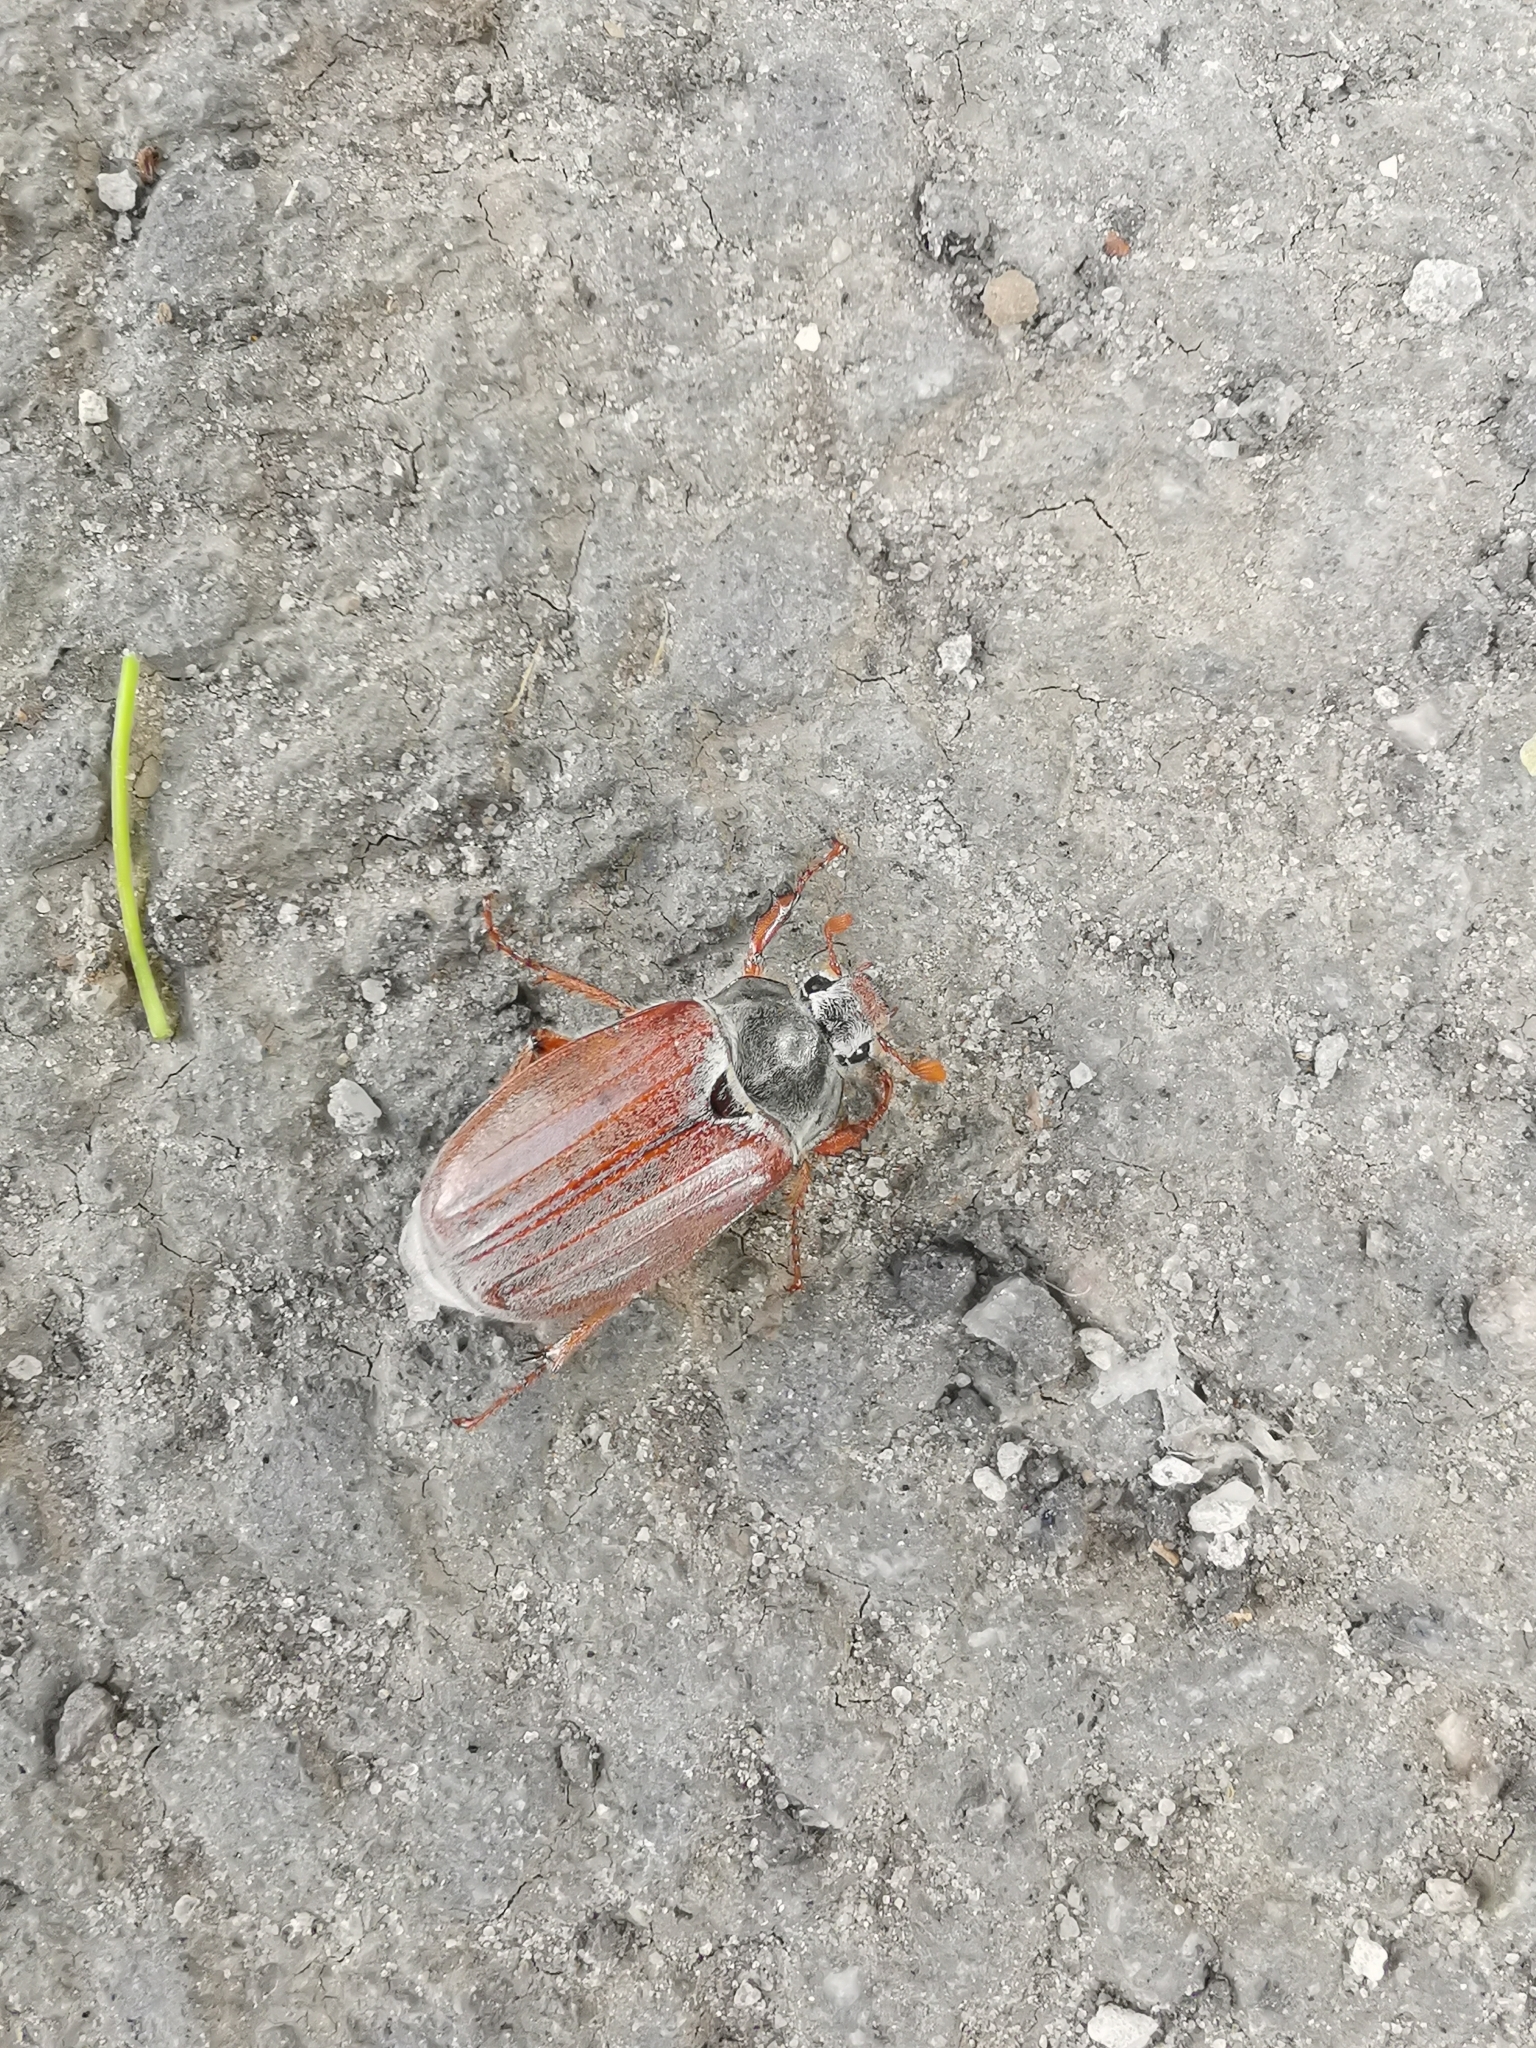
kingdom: Animalia
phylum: Arthropoda
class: Insecta
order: Coleoptera
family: Scarabaeidae
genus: Melolontha
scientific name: Melolontha melolontha
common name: Cockchafer maybeetle
